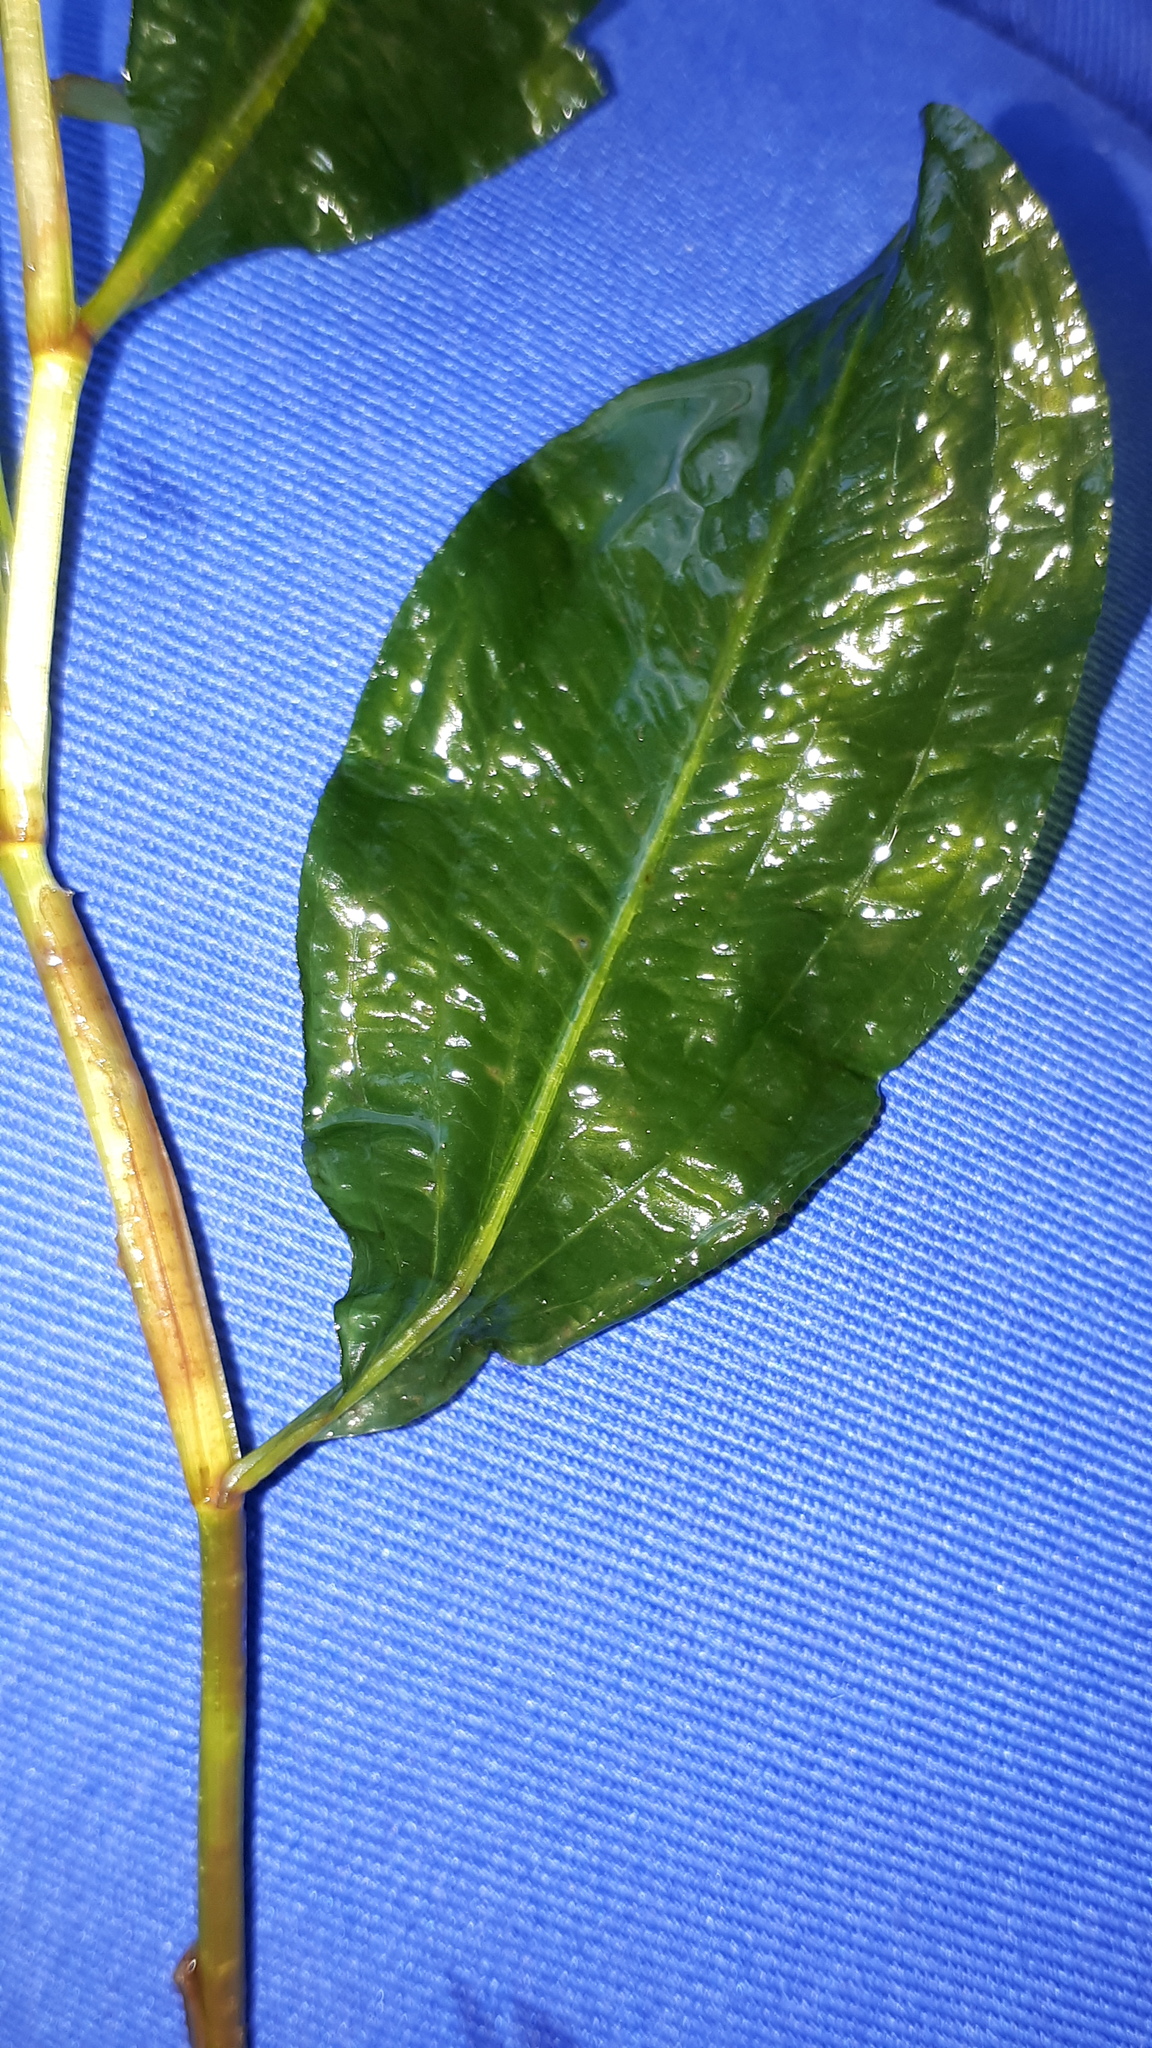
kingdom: Plantae
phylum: Tracheophyta
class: Liliopsida
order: Alismatales
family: Potamogetonaceae
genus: Potamogeton
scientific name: Potamogeton lucens
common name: Shining pondweed
